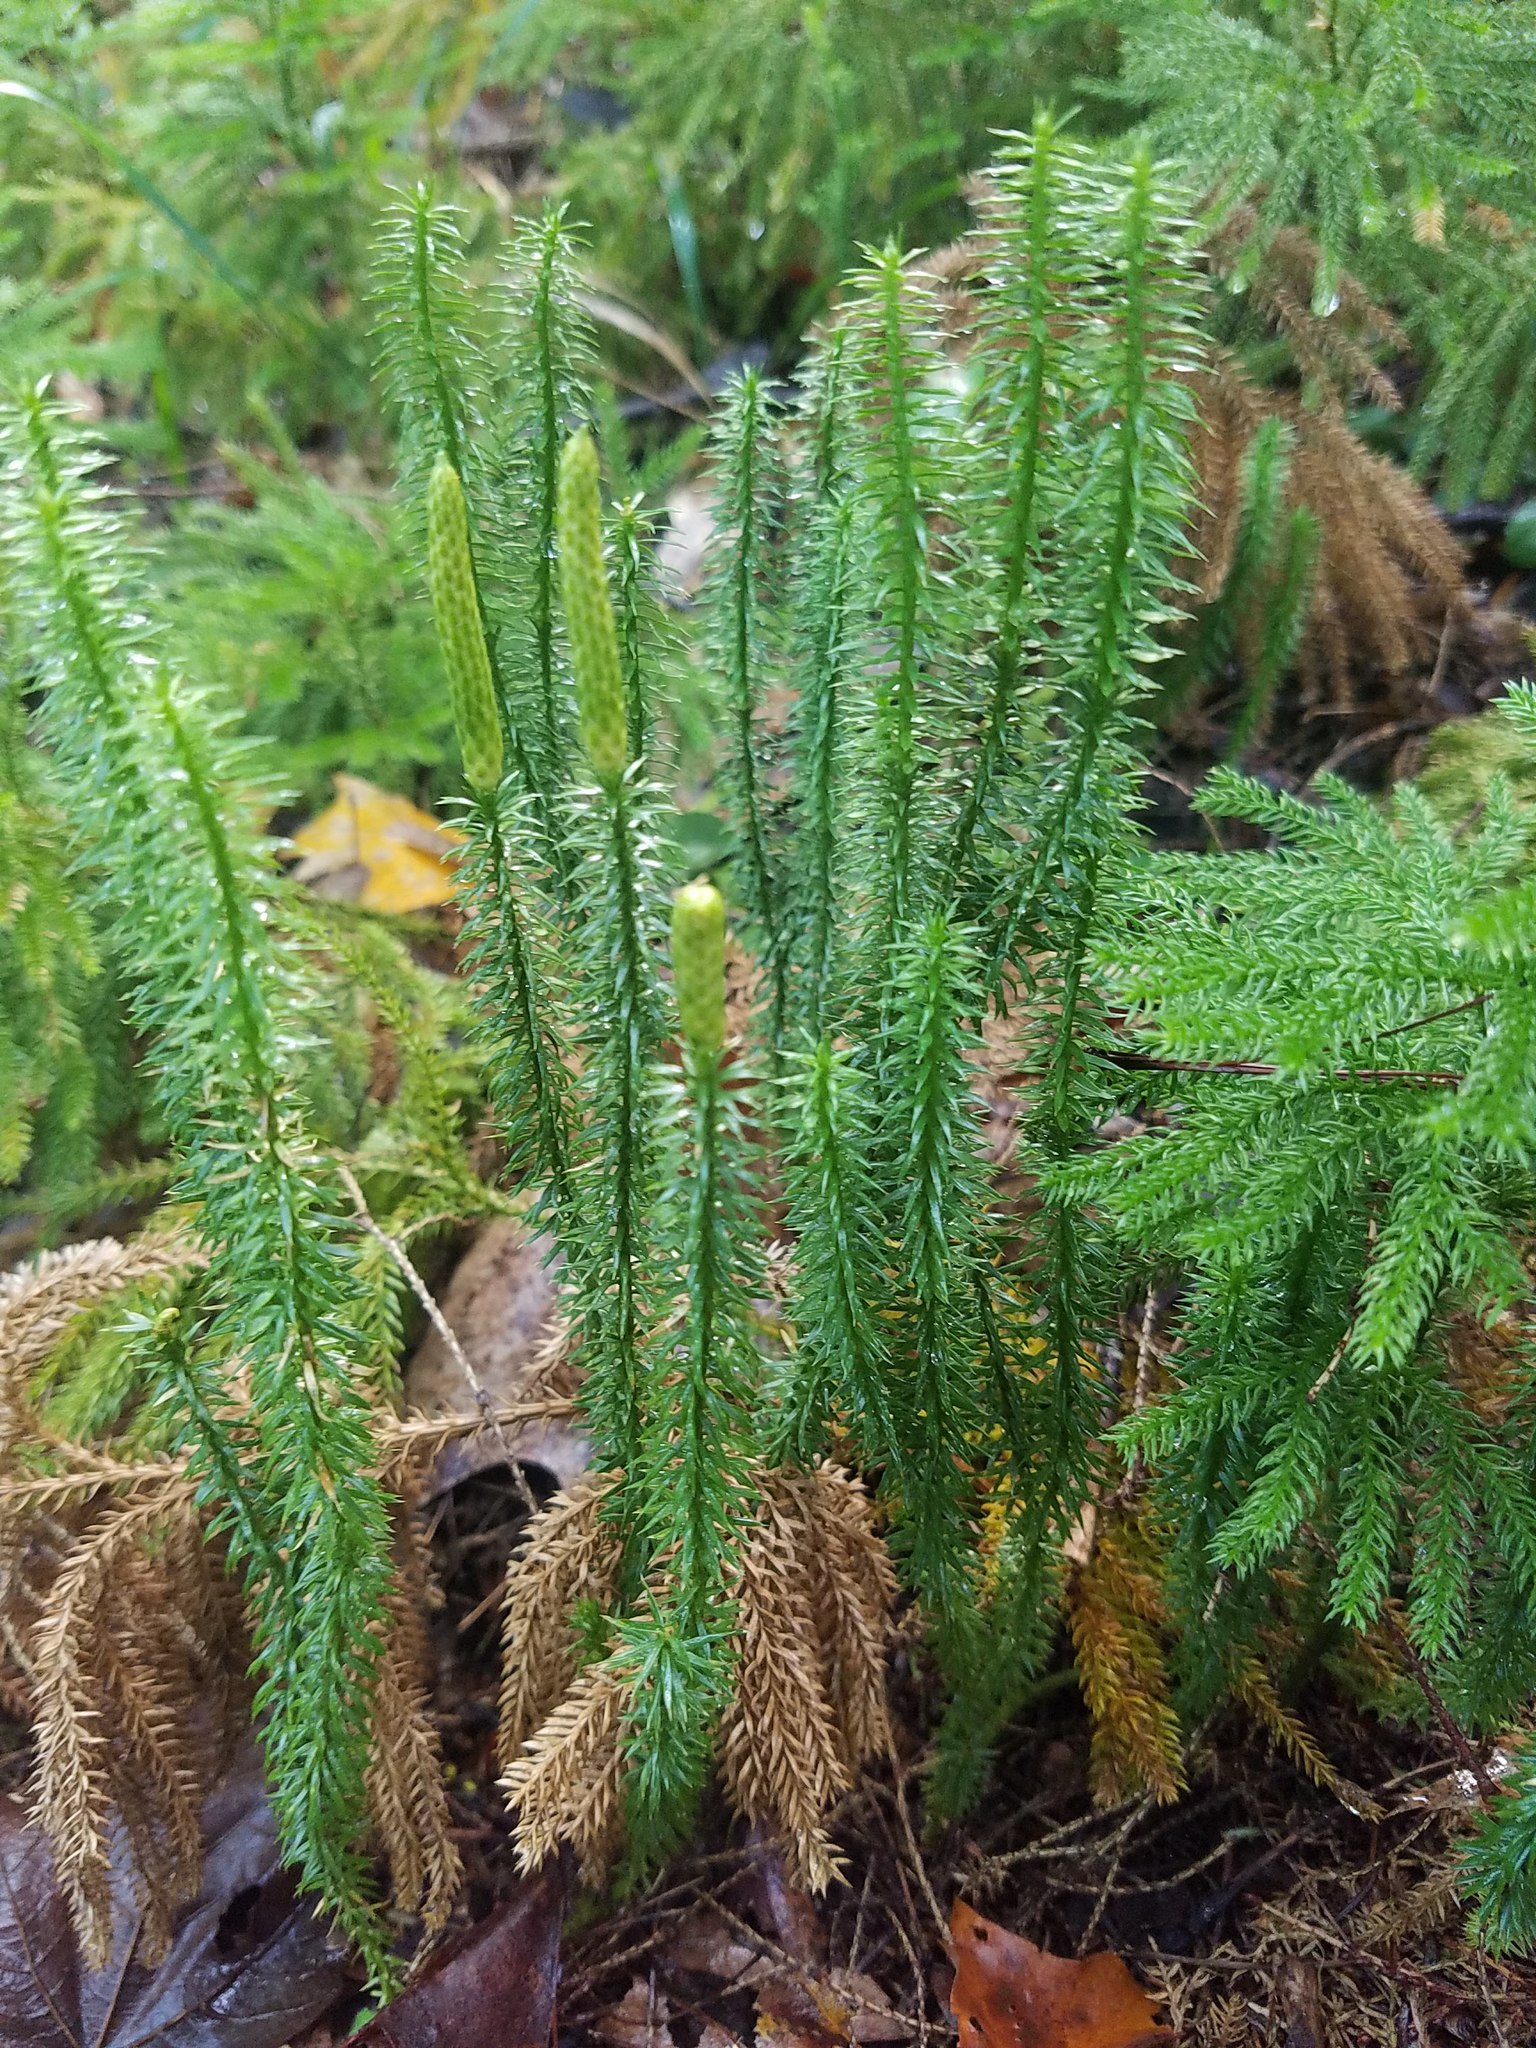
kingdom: Plantae
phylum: Tracheophyta
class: Lycopodiopsida
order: Lycopodiales
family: Lycopodiaceae
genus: Spinulum
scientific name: Spinulum annotinum
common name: Interrupted club-moss
